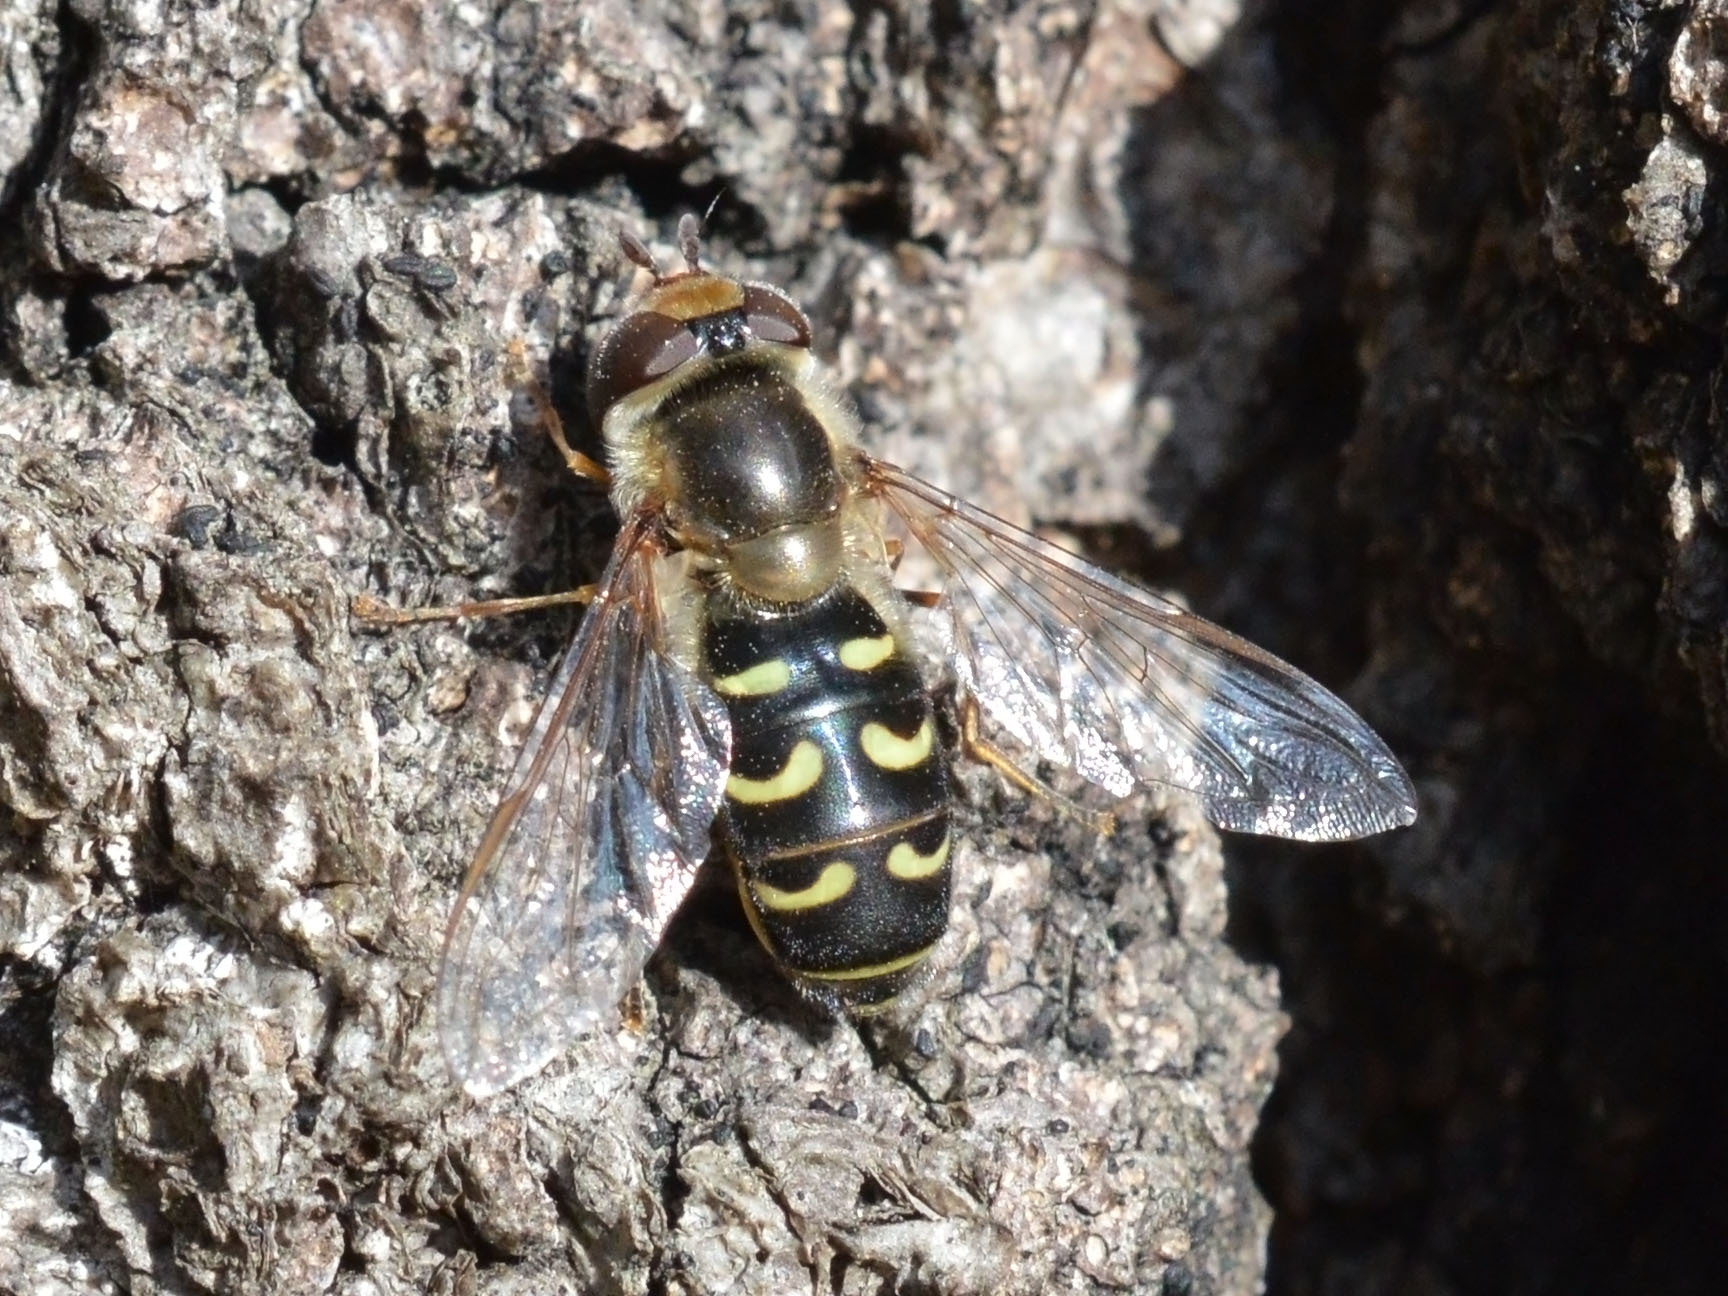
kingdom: Animalia
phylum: Arthropoda
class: Insecta
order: Diptera
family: Syrphidae
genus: Scaeva
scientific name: Scaeva selenitica
